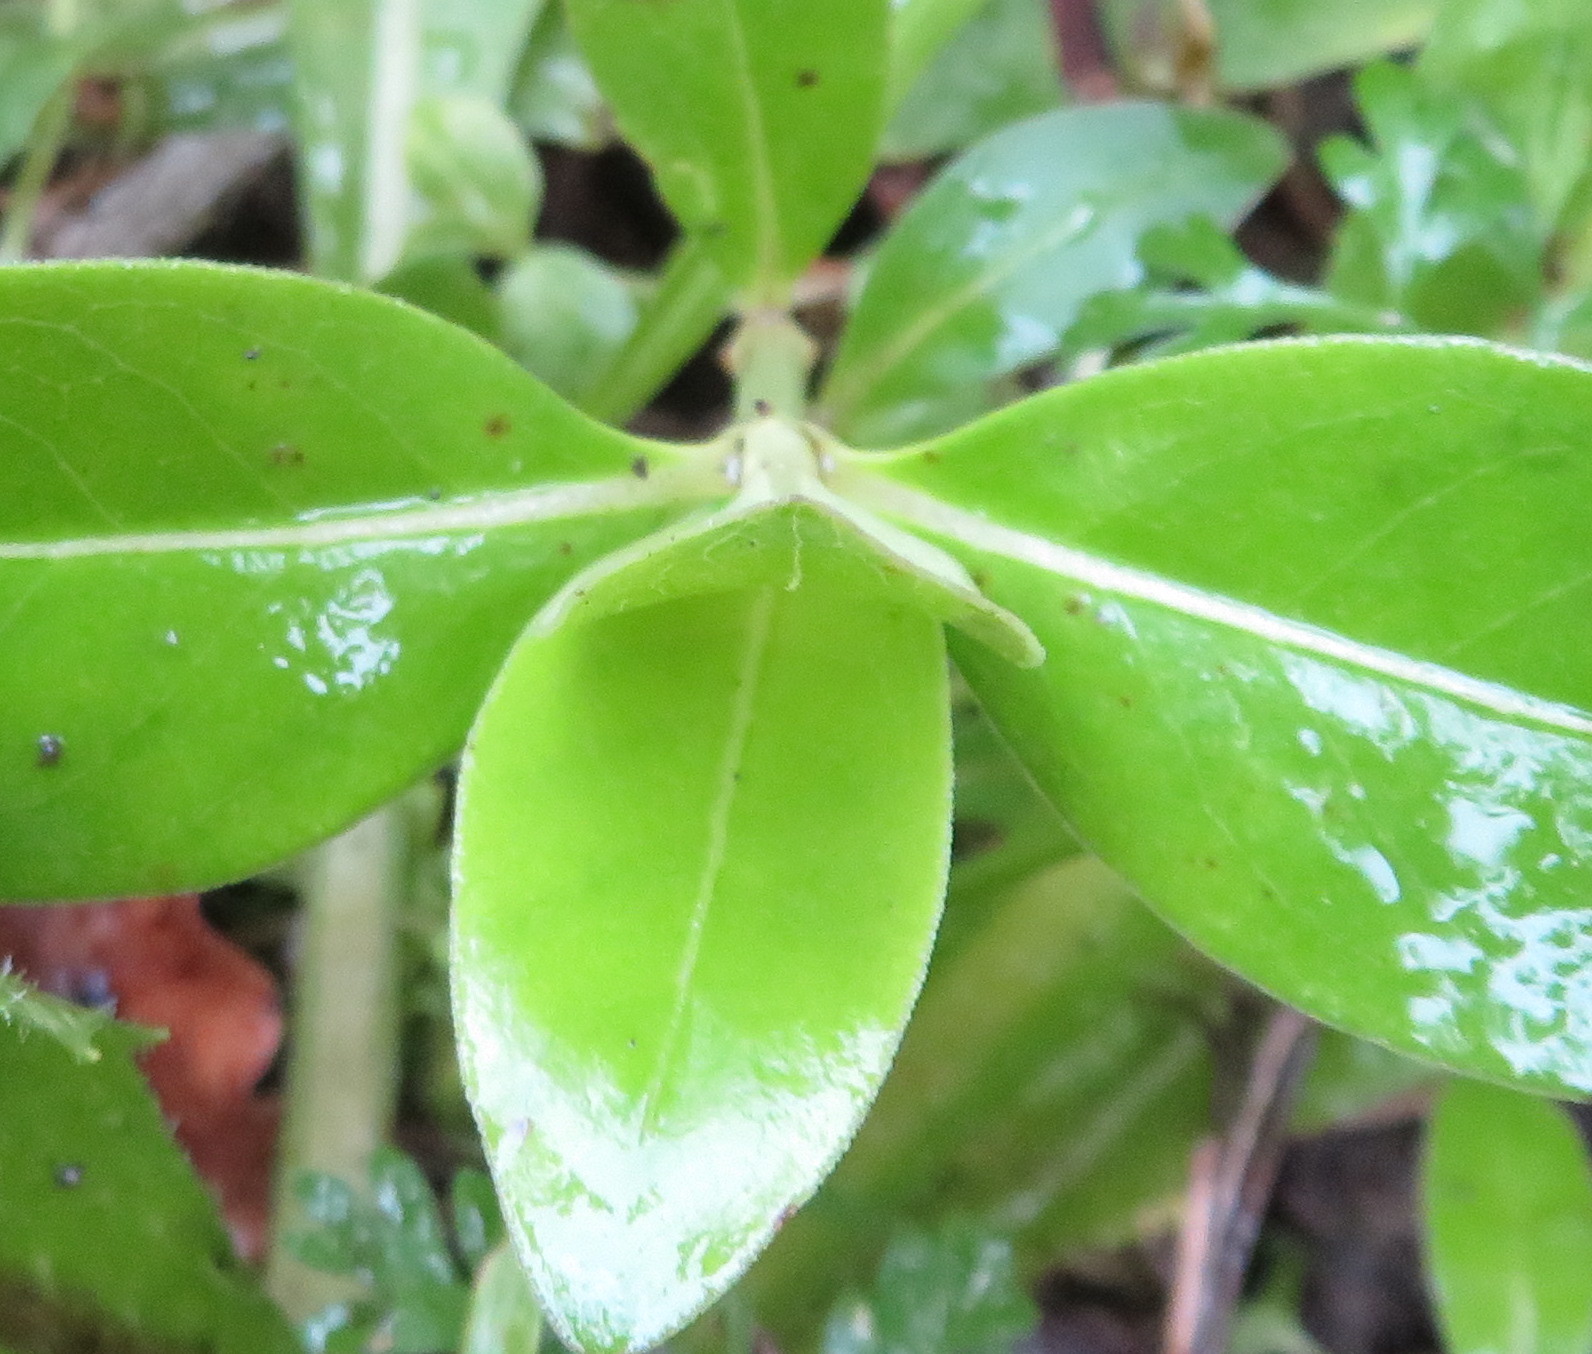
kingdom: Plantae
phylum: Tracheophyta
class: Magnoliopsida
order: Gentianales
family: Rubiaceae
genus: Coprosma
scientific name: Coprosma robusta
